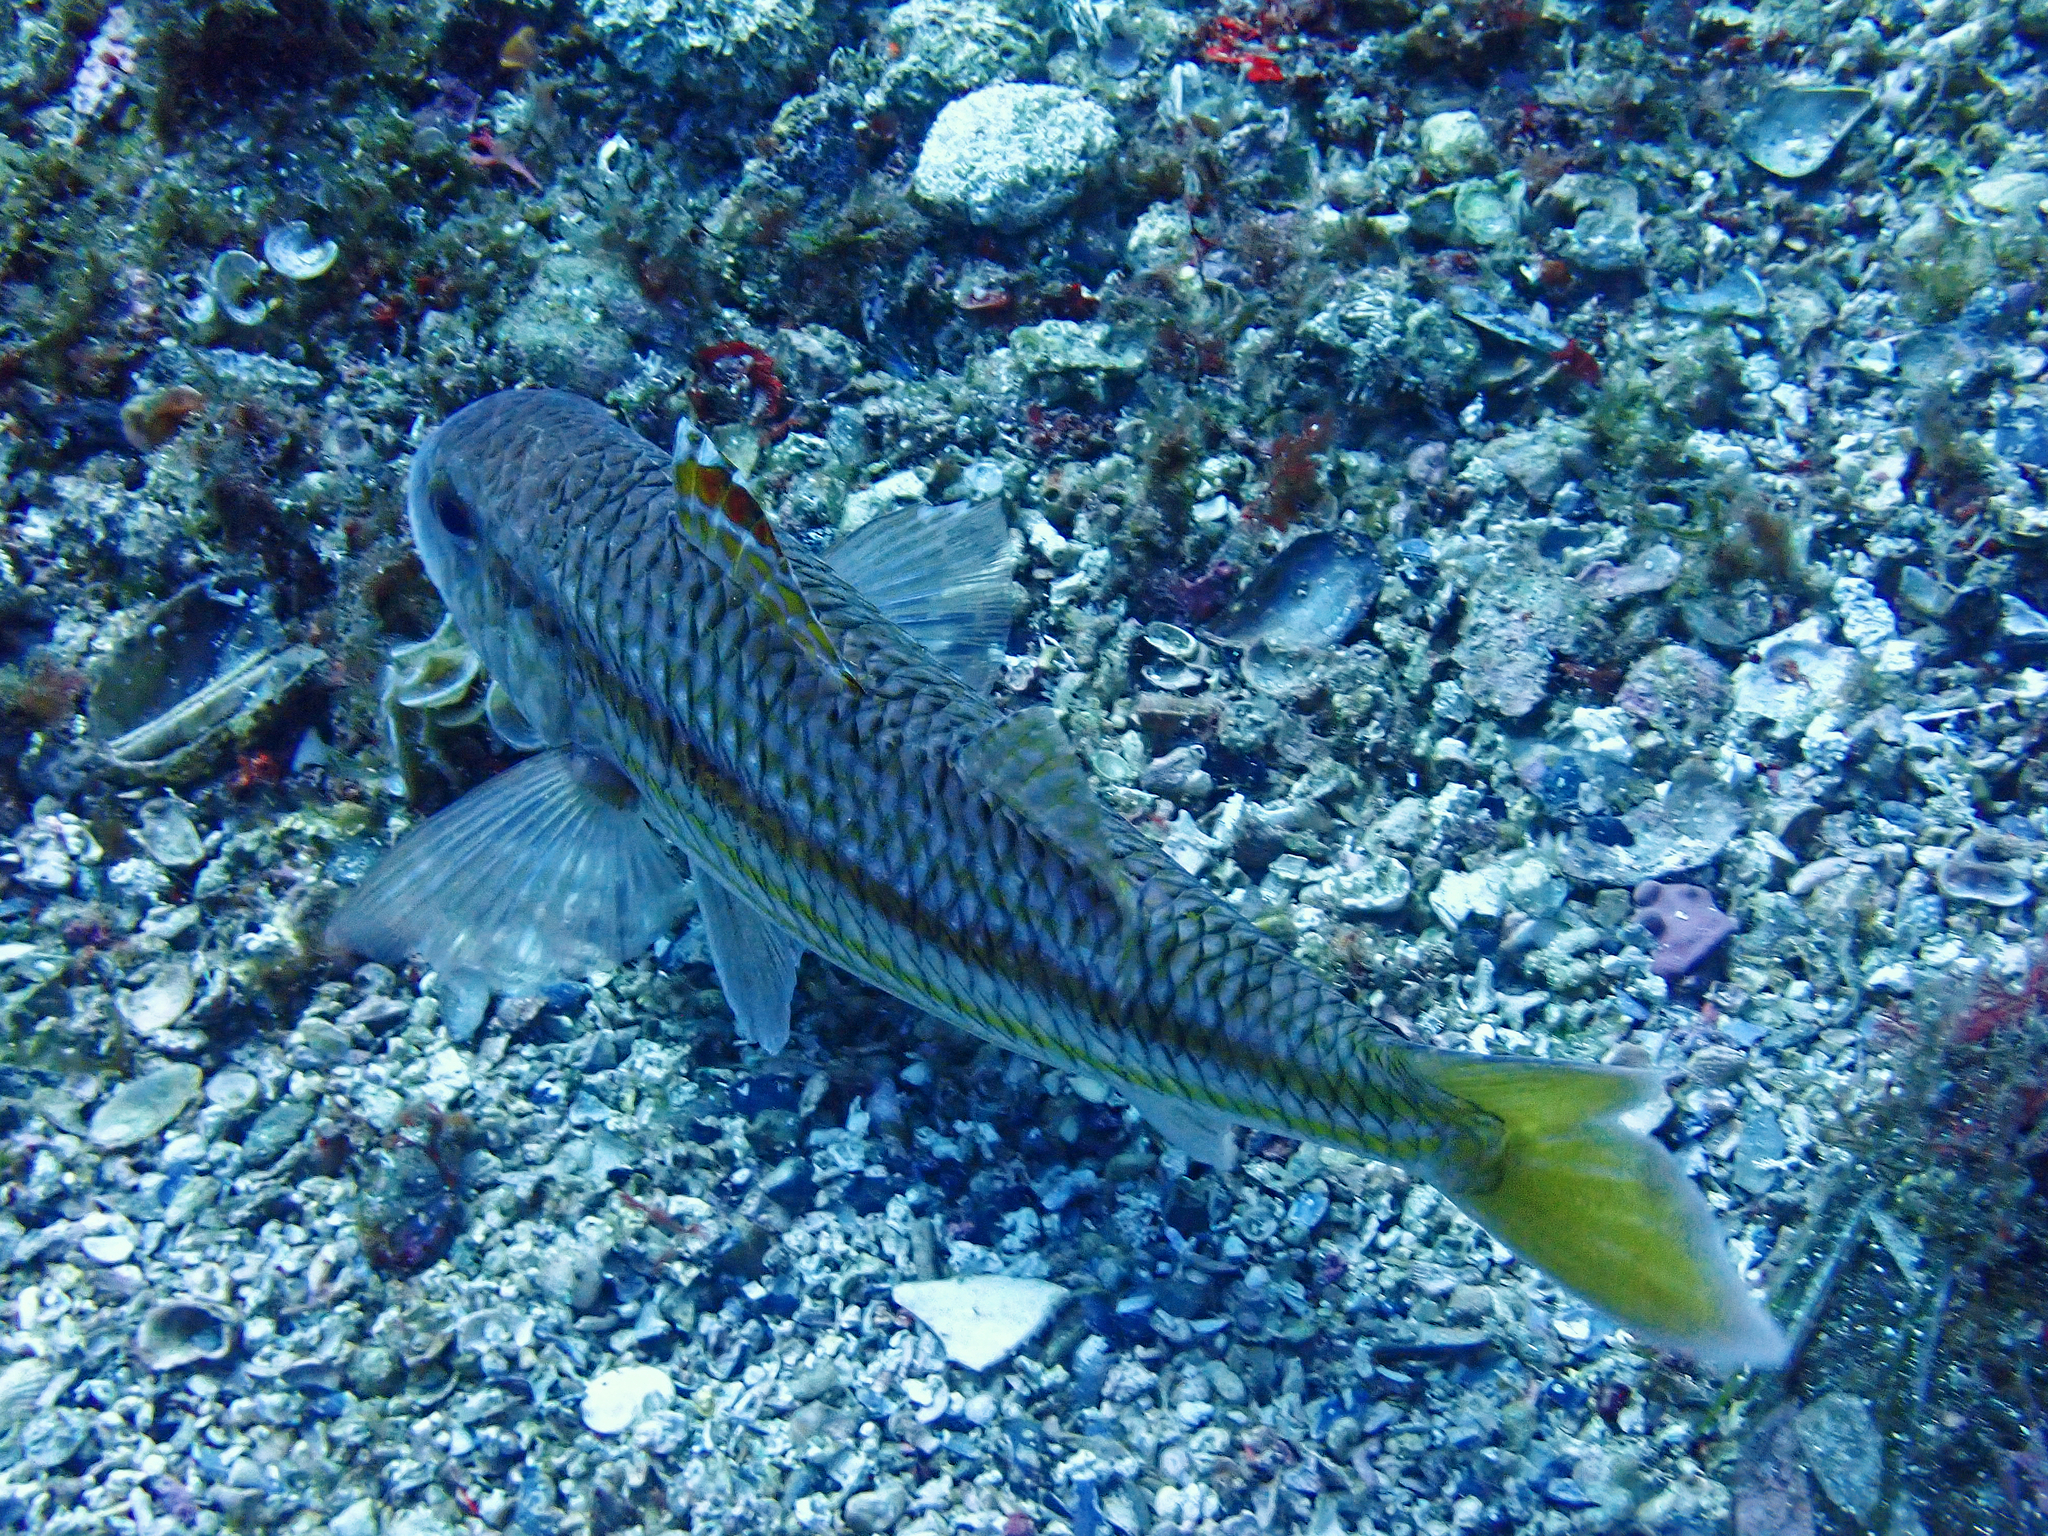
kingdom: Animalia
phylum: Chordata
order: Perciformes
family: Mullidae
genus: Mullus
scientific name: Mullus surmuletus
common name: Red mullet
